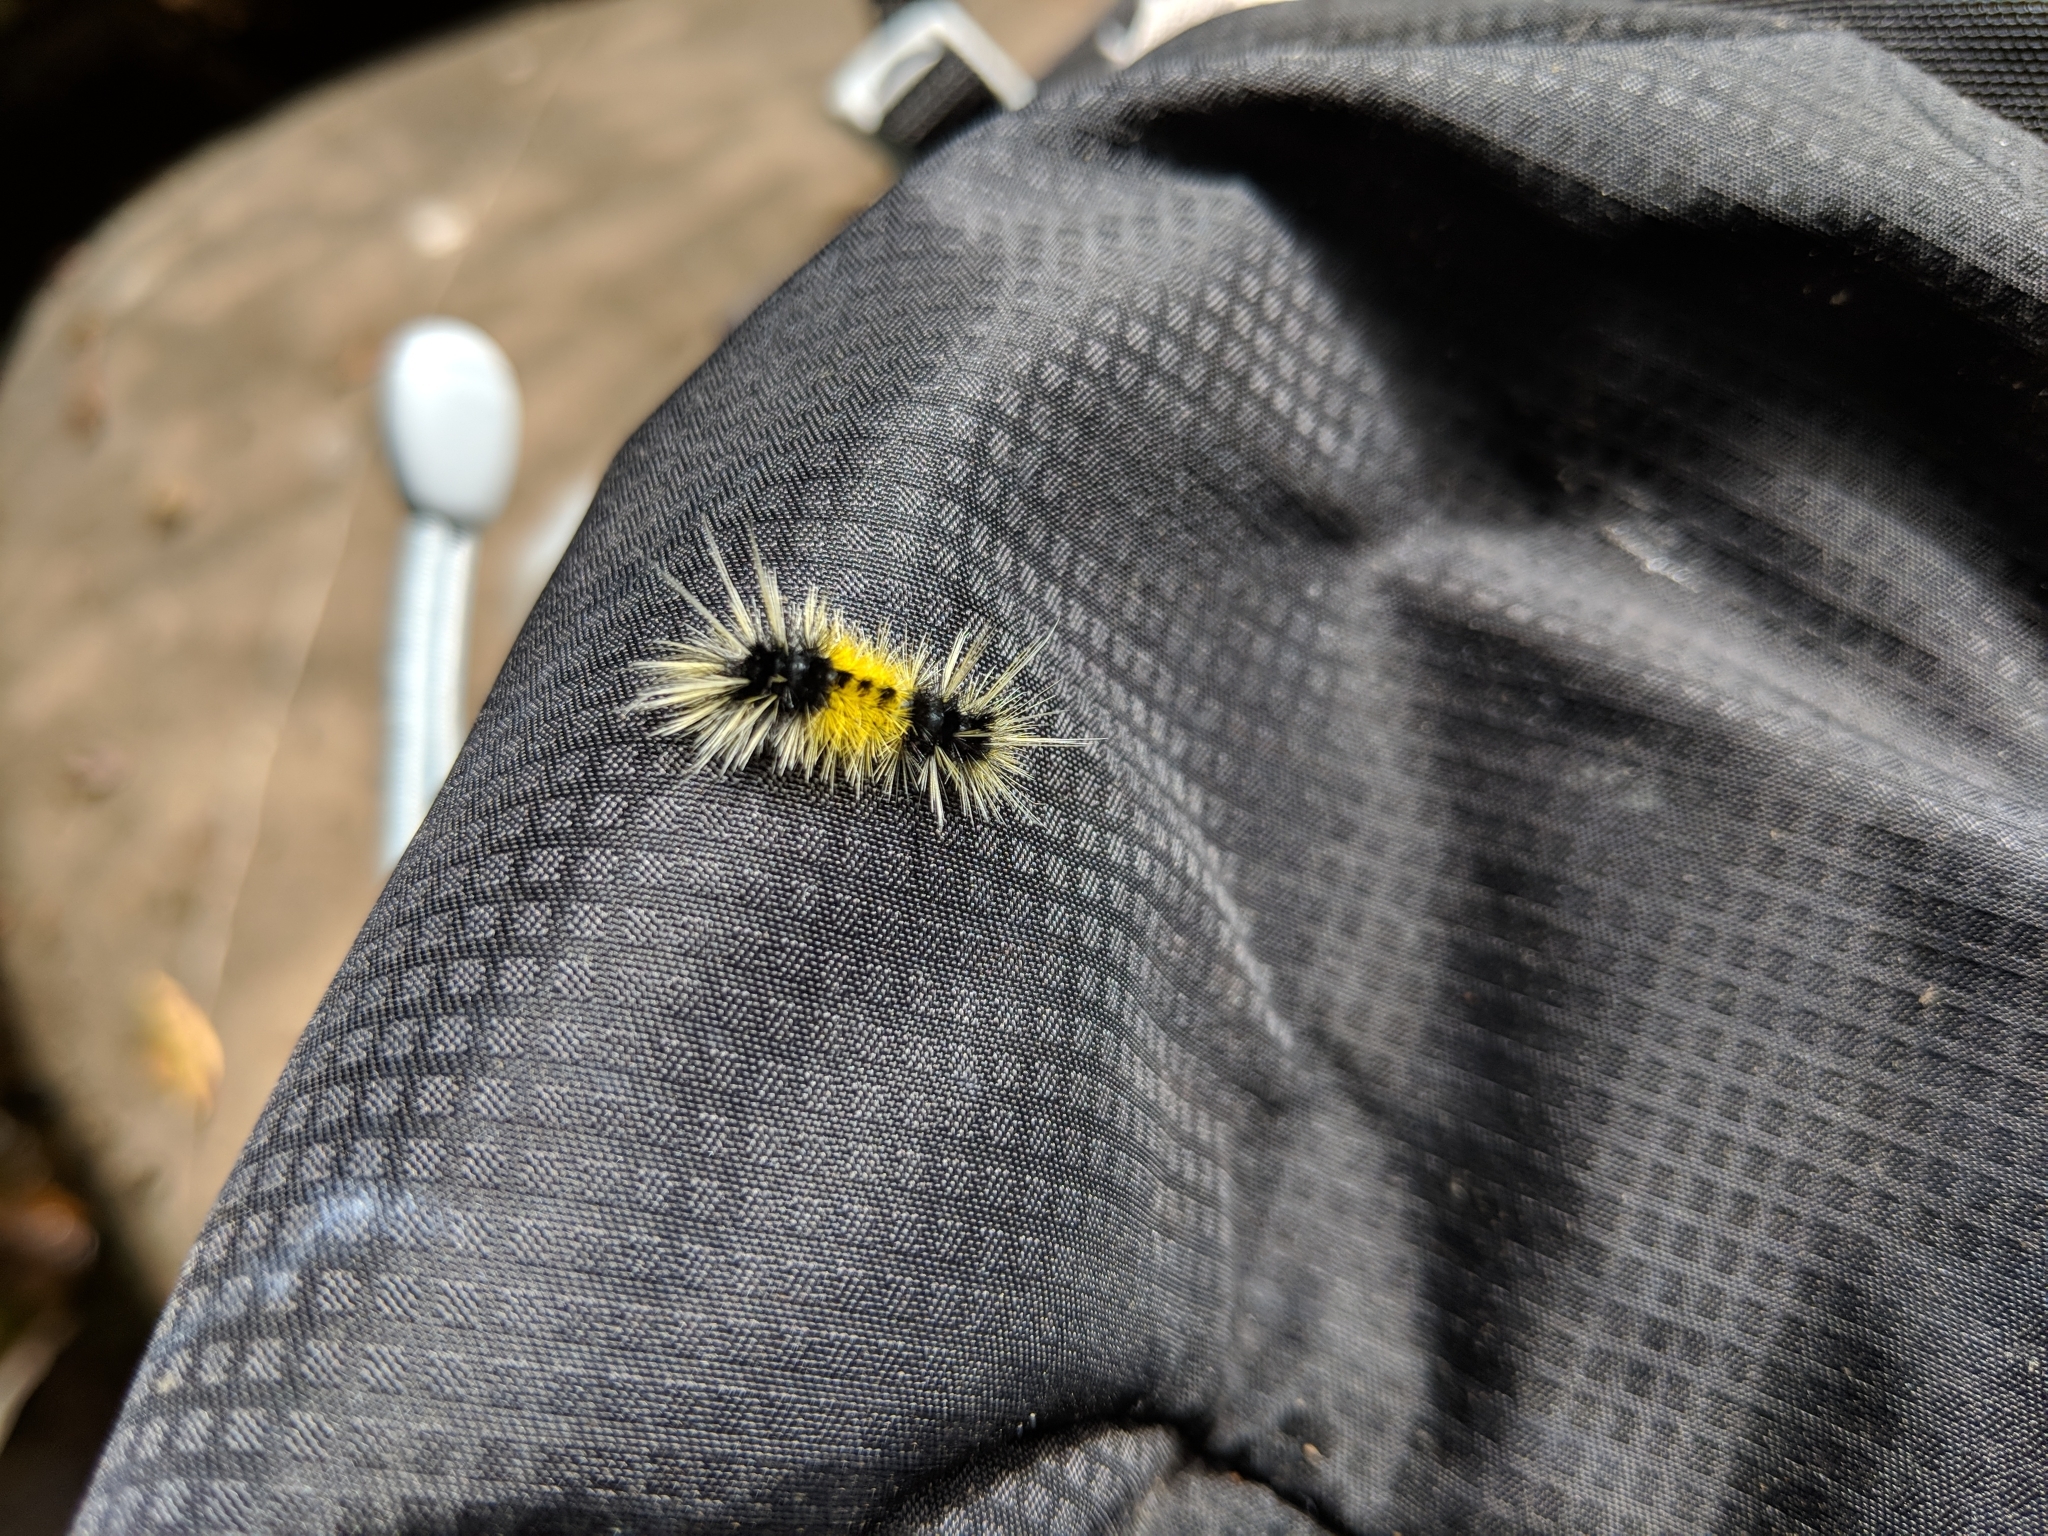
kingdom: Animalia
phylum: Arthropoda
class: Insecta
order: Lepidoptera
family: Erebidae
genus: Lophocampa
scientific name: Lophocampa maculata
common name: Spotted tussock moth
